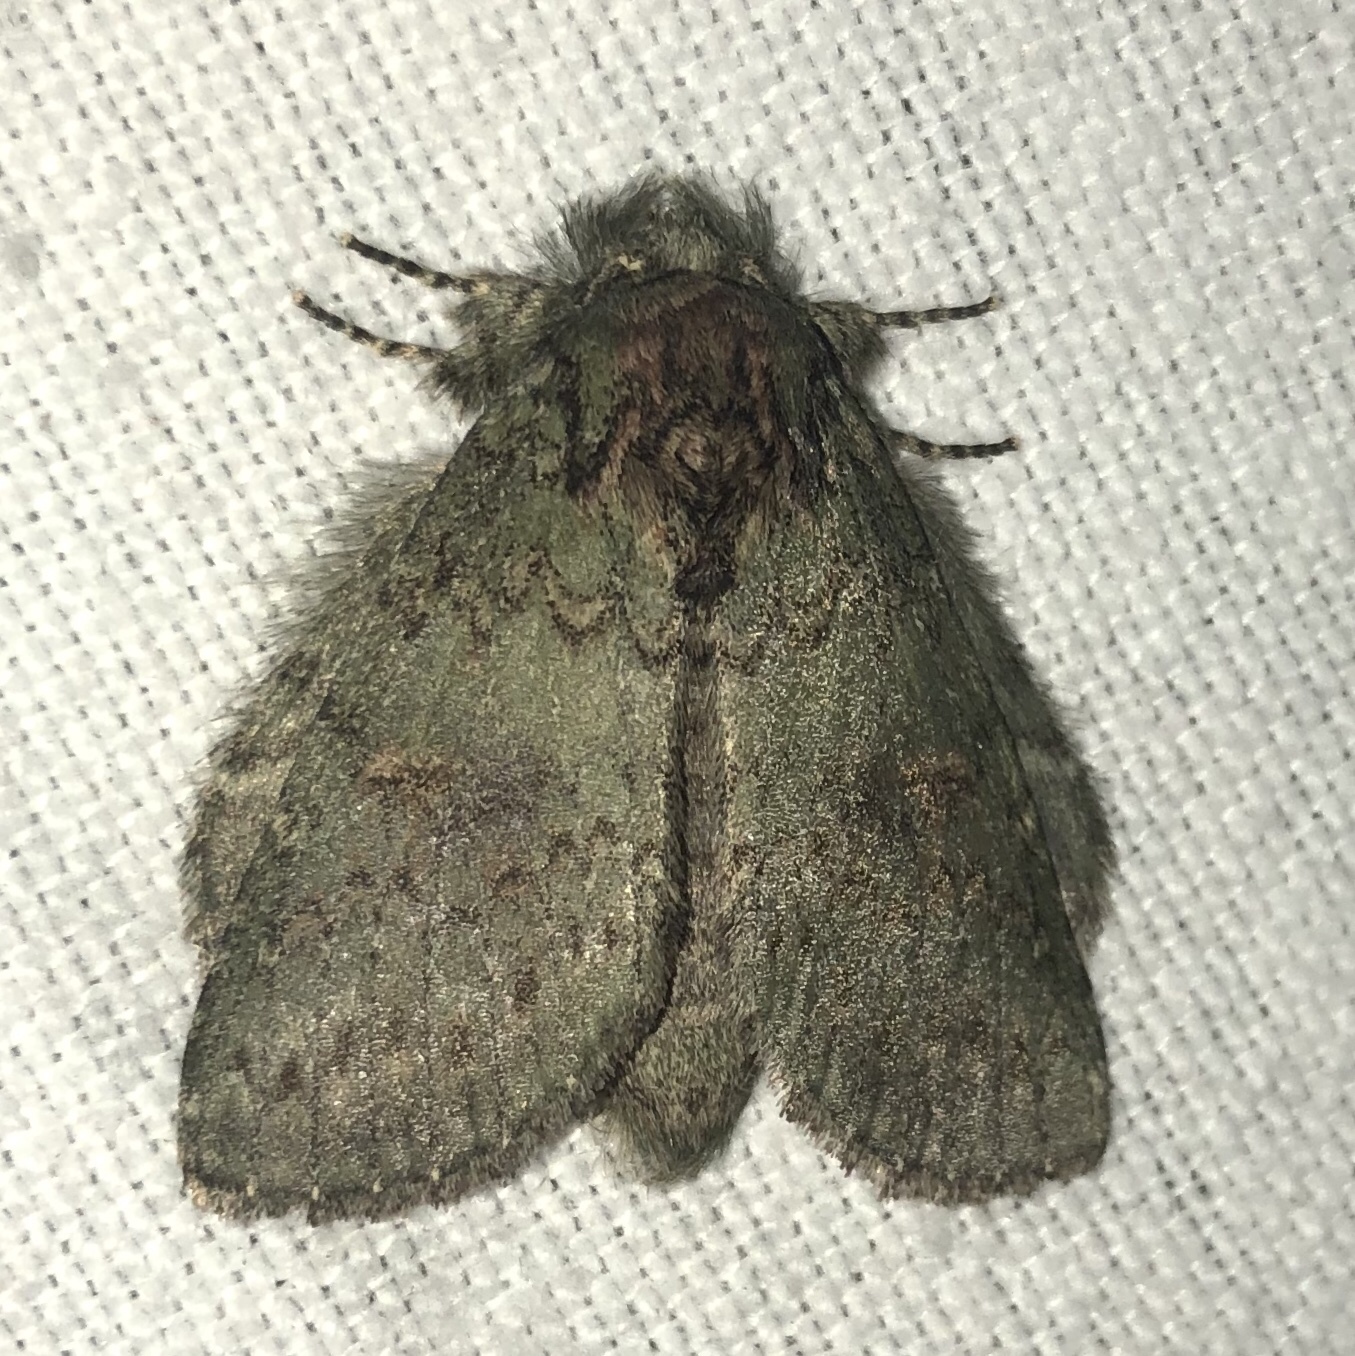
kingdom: Animalia
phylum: Arthropoda
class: Insecta
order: Lepidoptera
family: Notodontidae
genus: Disphragis
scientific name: Disphragis Cecrita biundata
